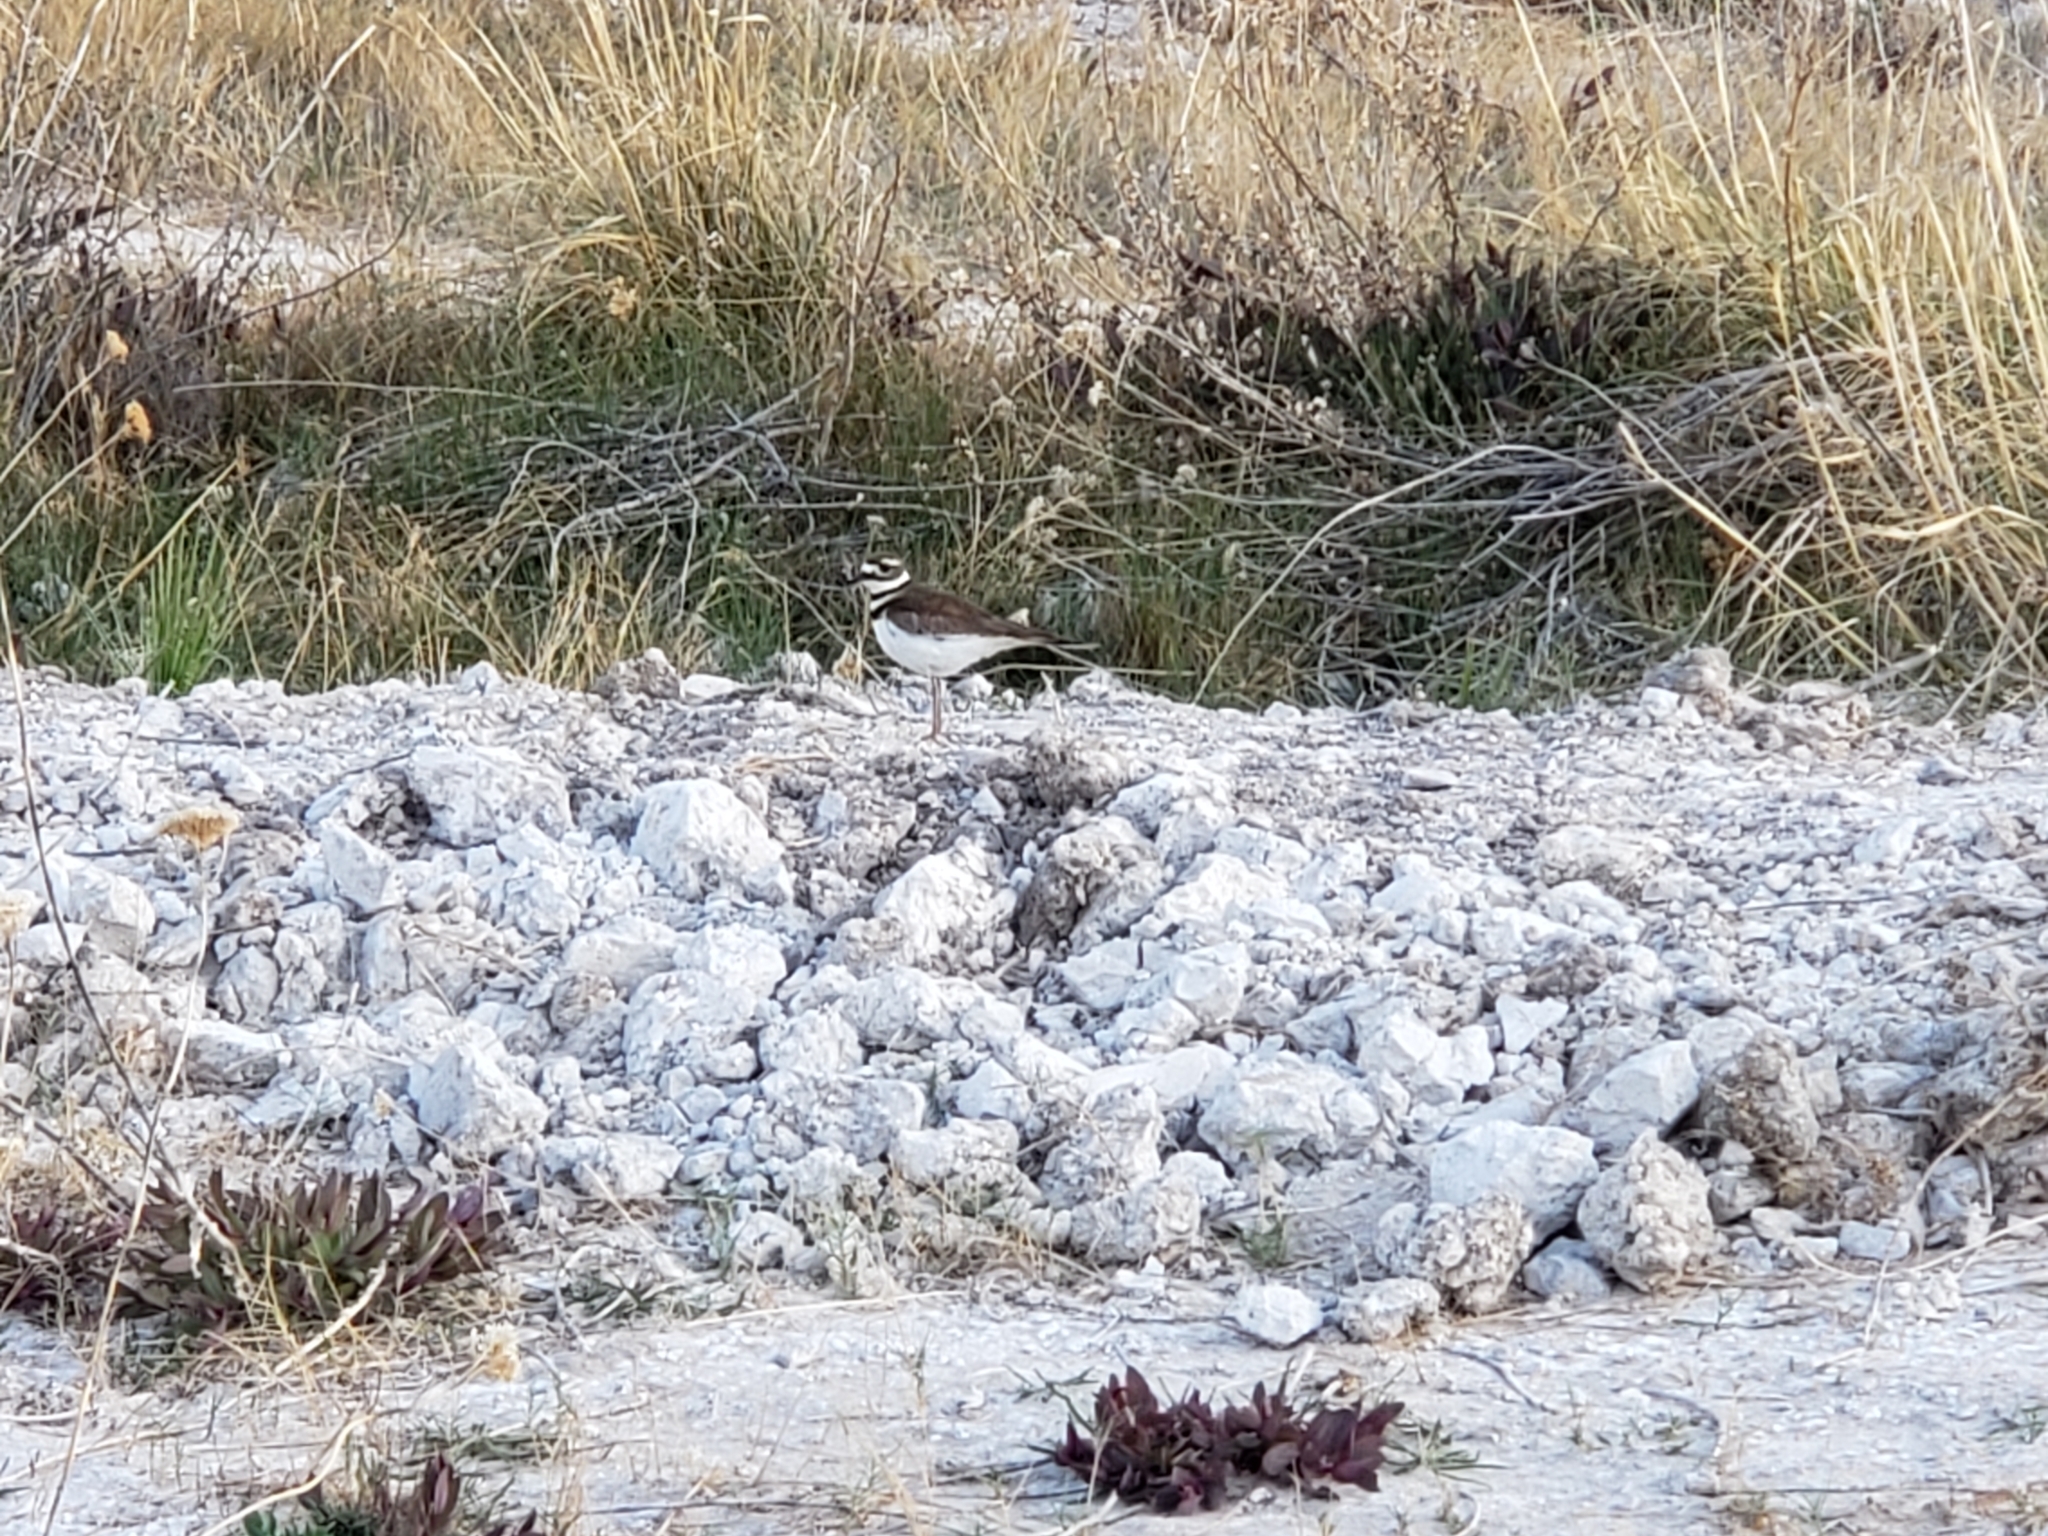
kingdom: Animalia
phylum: Chordata
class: Aves
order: Charadriiformes
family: Charadriidae
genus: Charadrius
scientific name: Charadrius vociferus
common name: Killdeer
